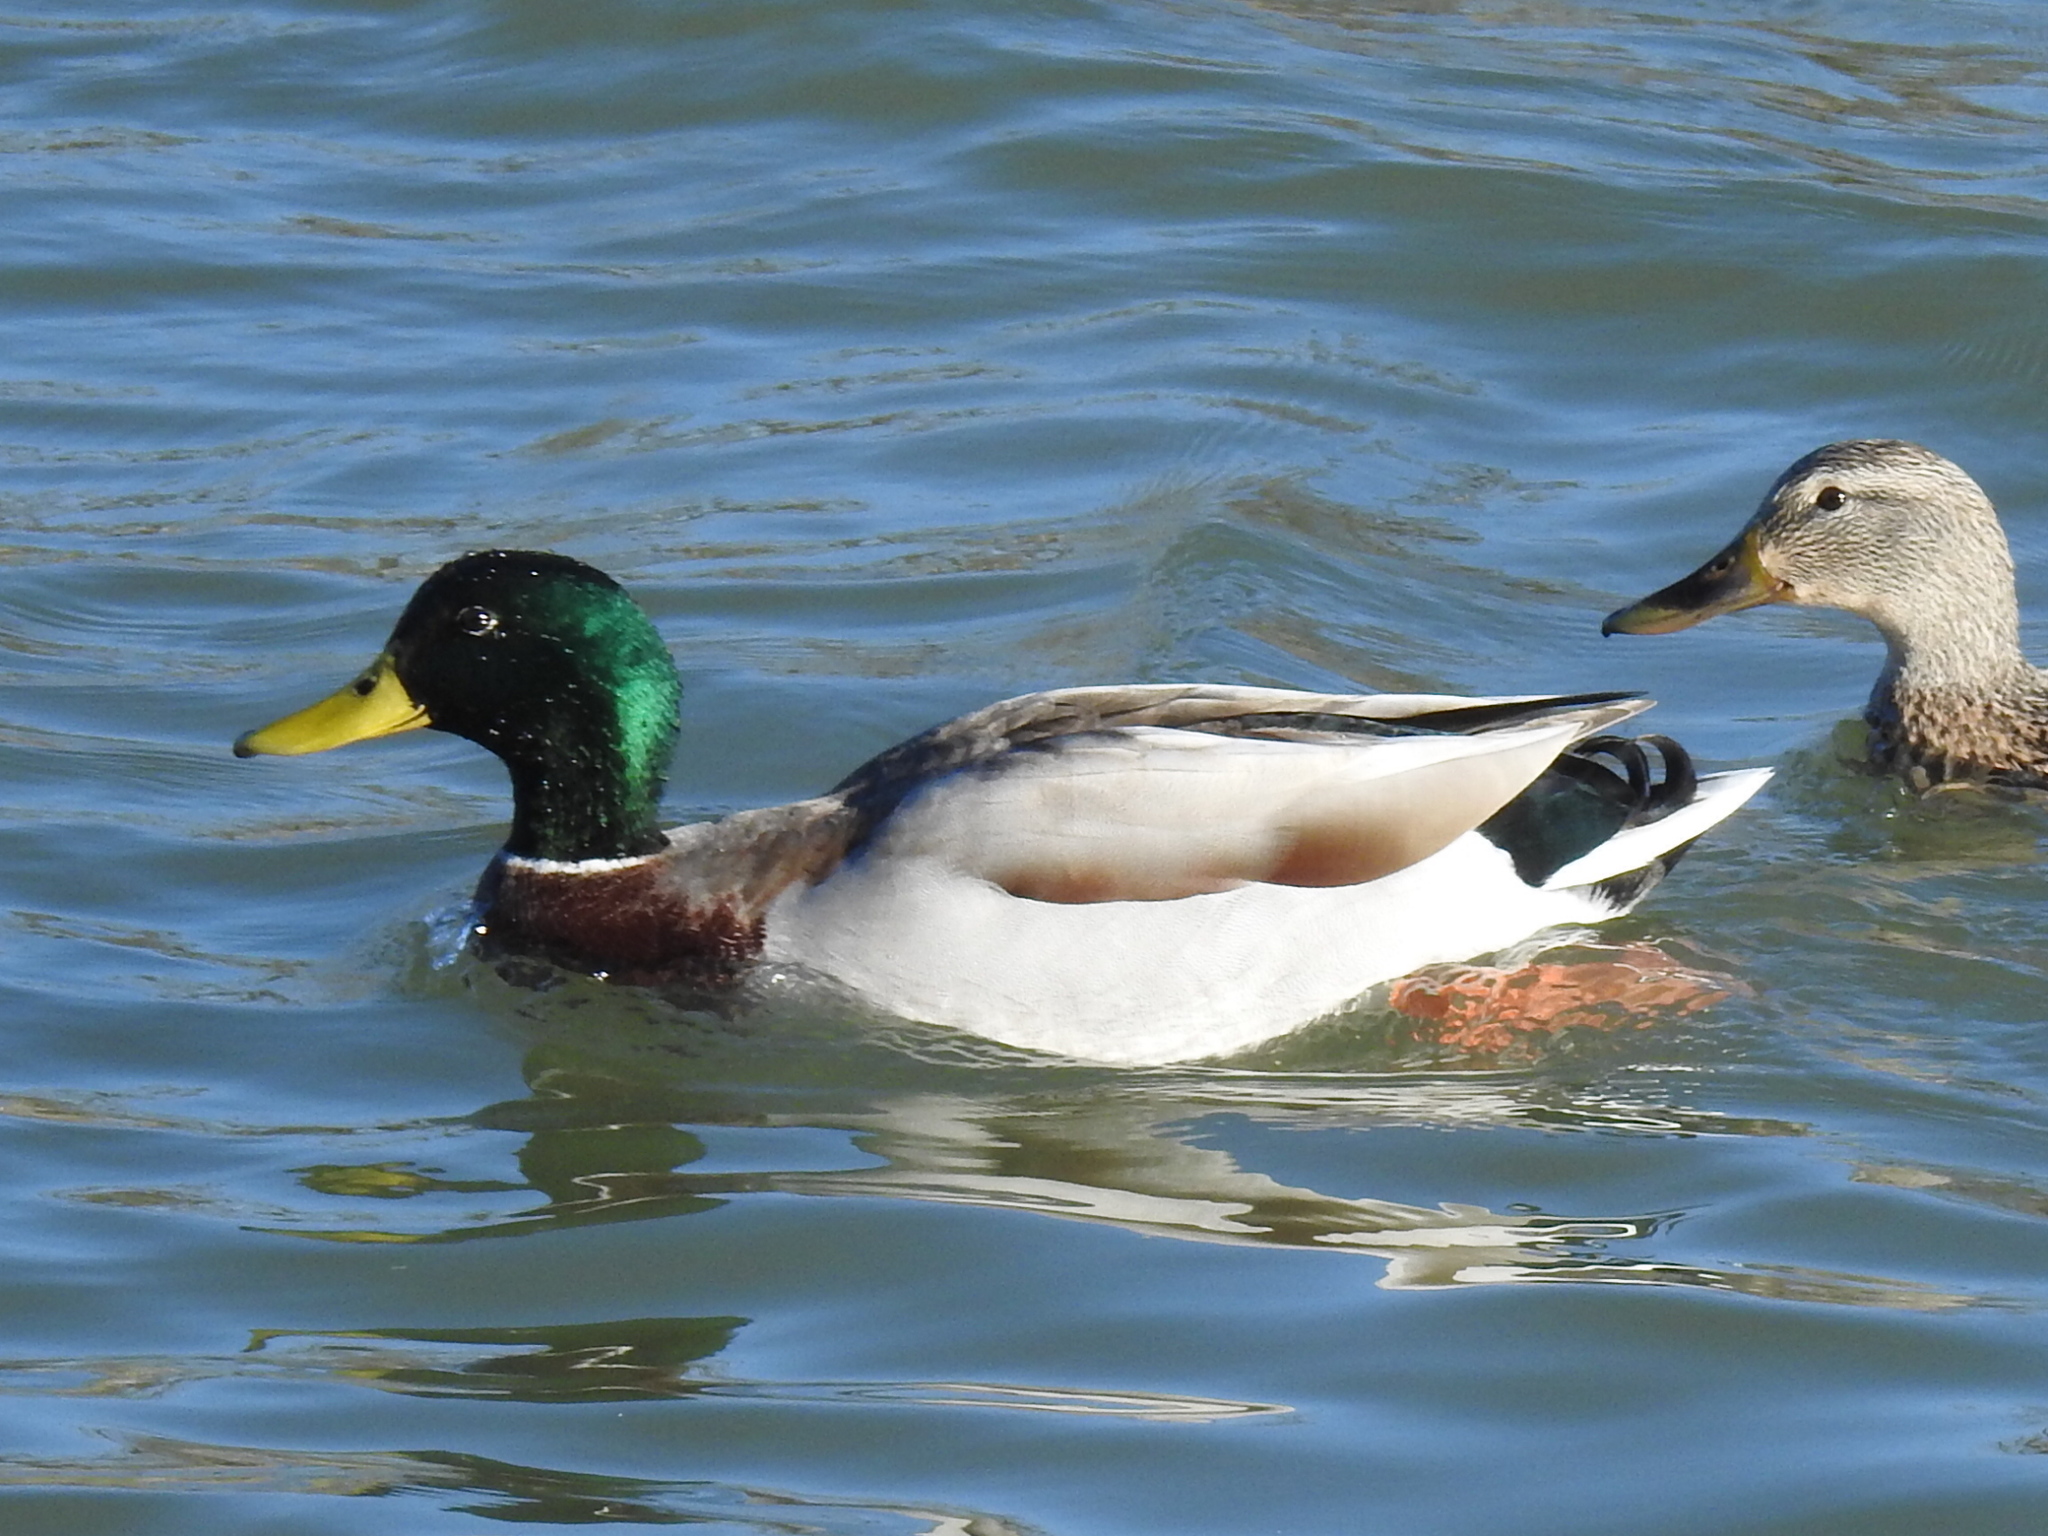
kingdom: Animalia
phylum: Chordata
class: Aves
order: Anseriformes
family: Anatidae
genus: Anas
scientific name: Anas platyrhynchos
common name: Mallard
